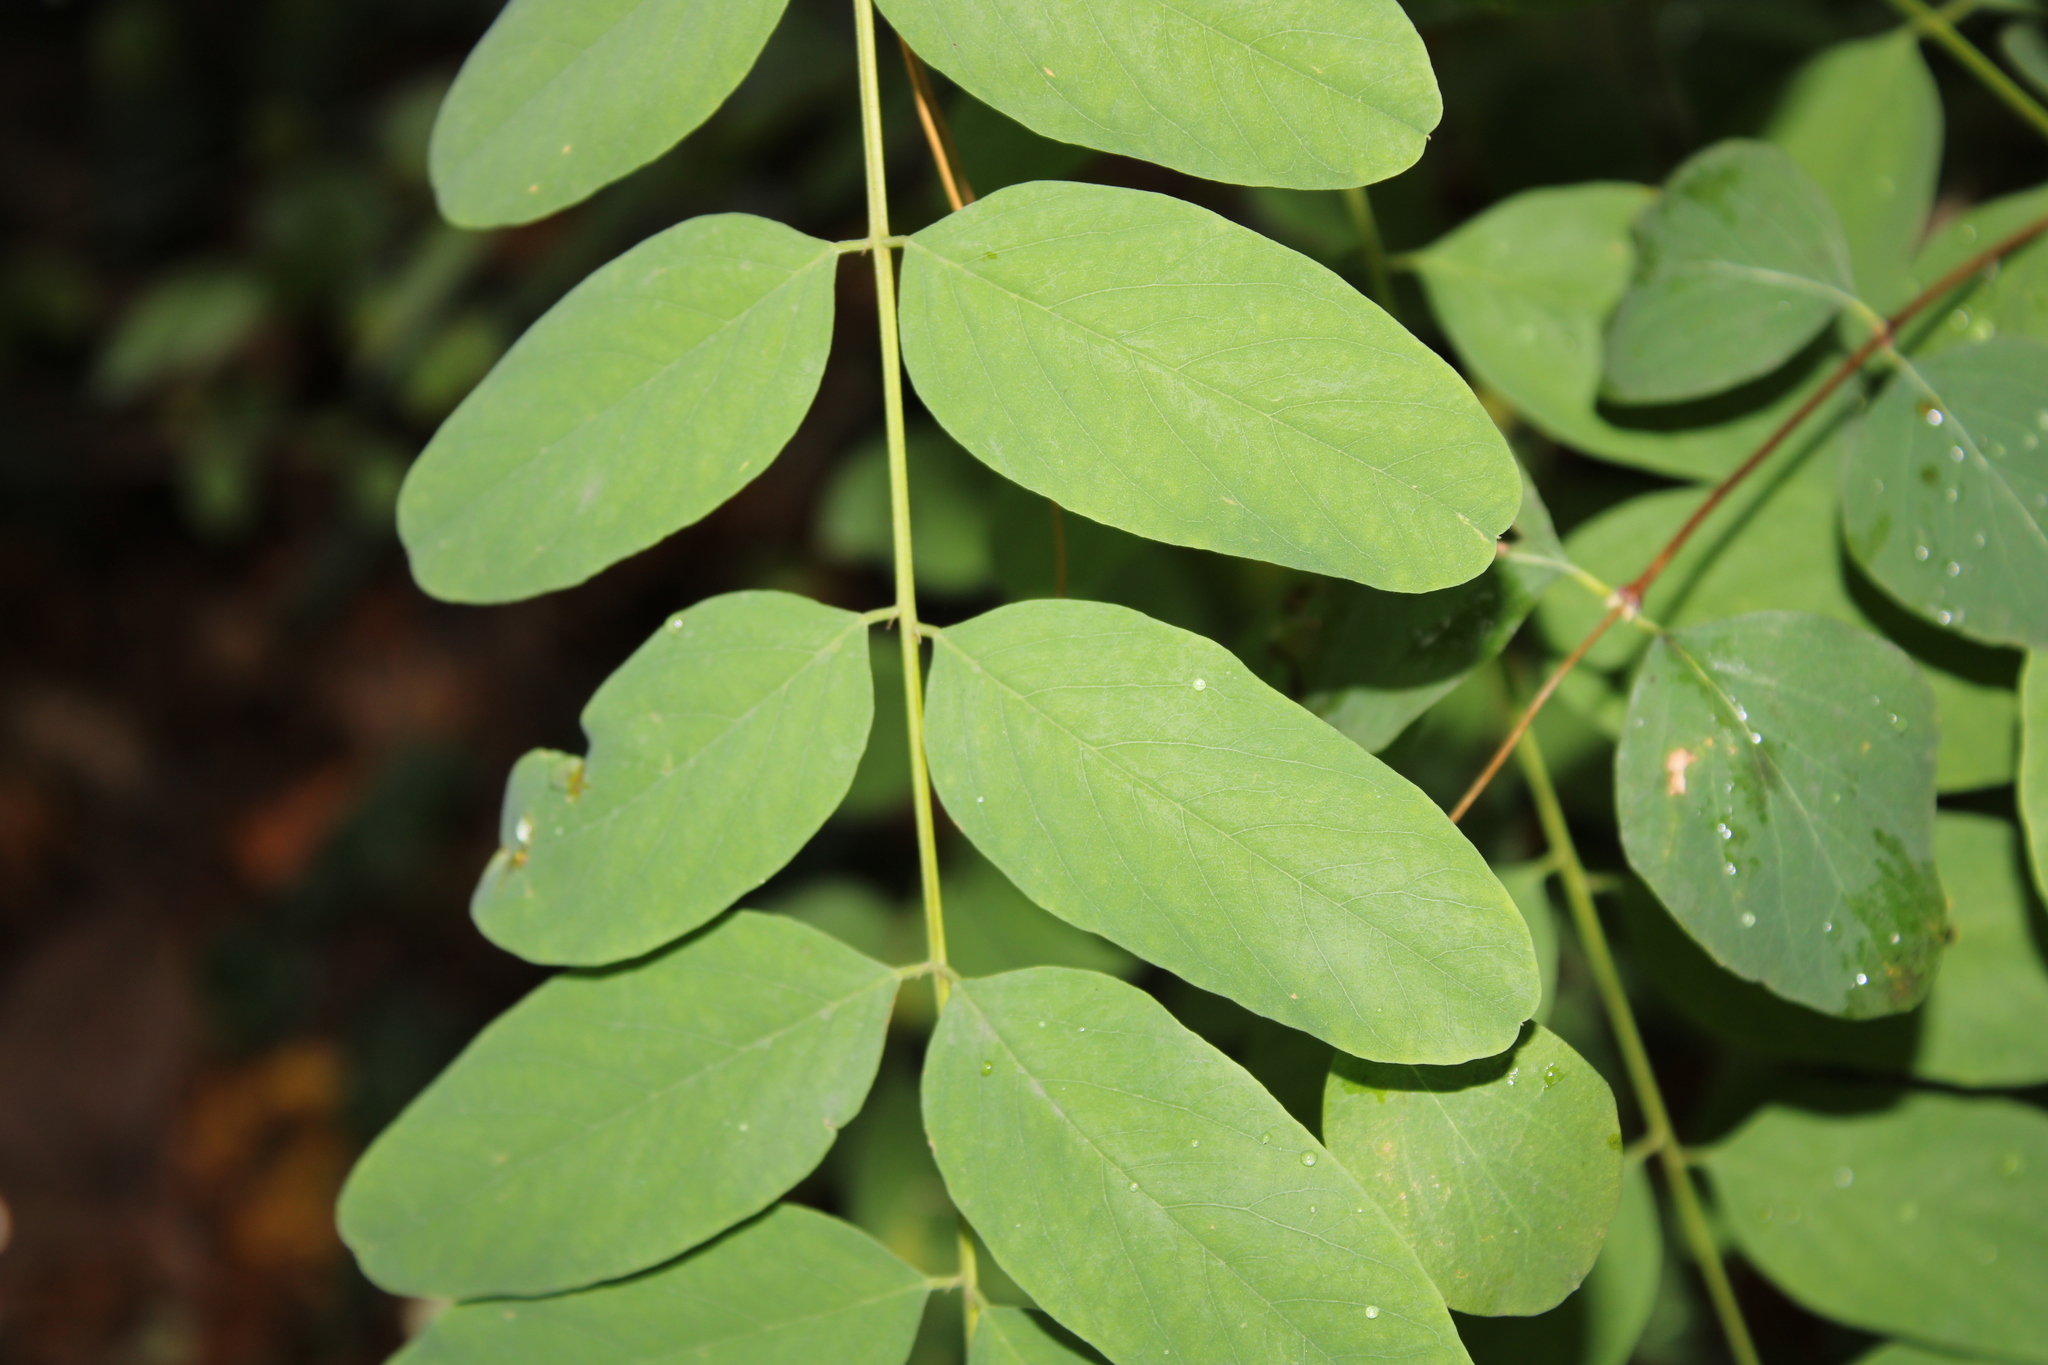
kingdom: Plantae
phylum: Tracheophyta
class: Magnoliopsida
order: Fabales
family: Fabaceae
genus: Robinia
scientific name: Robinia pseudoacacia
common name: Black locust
